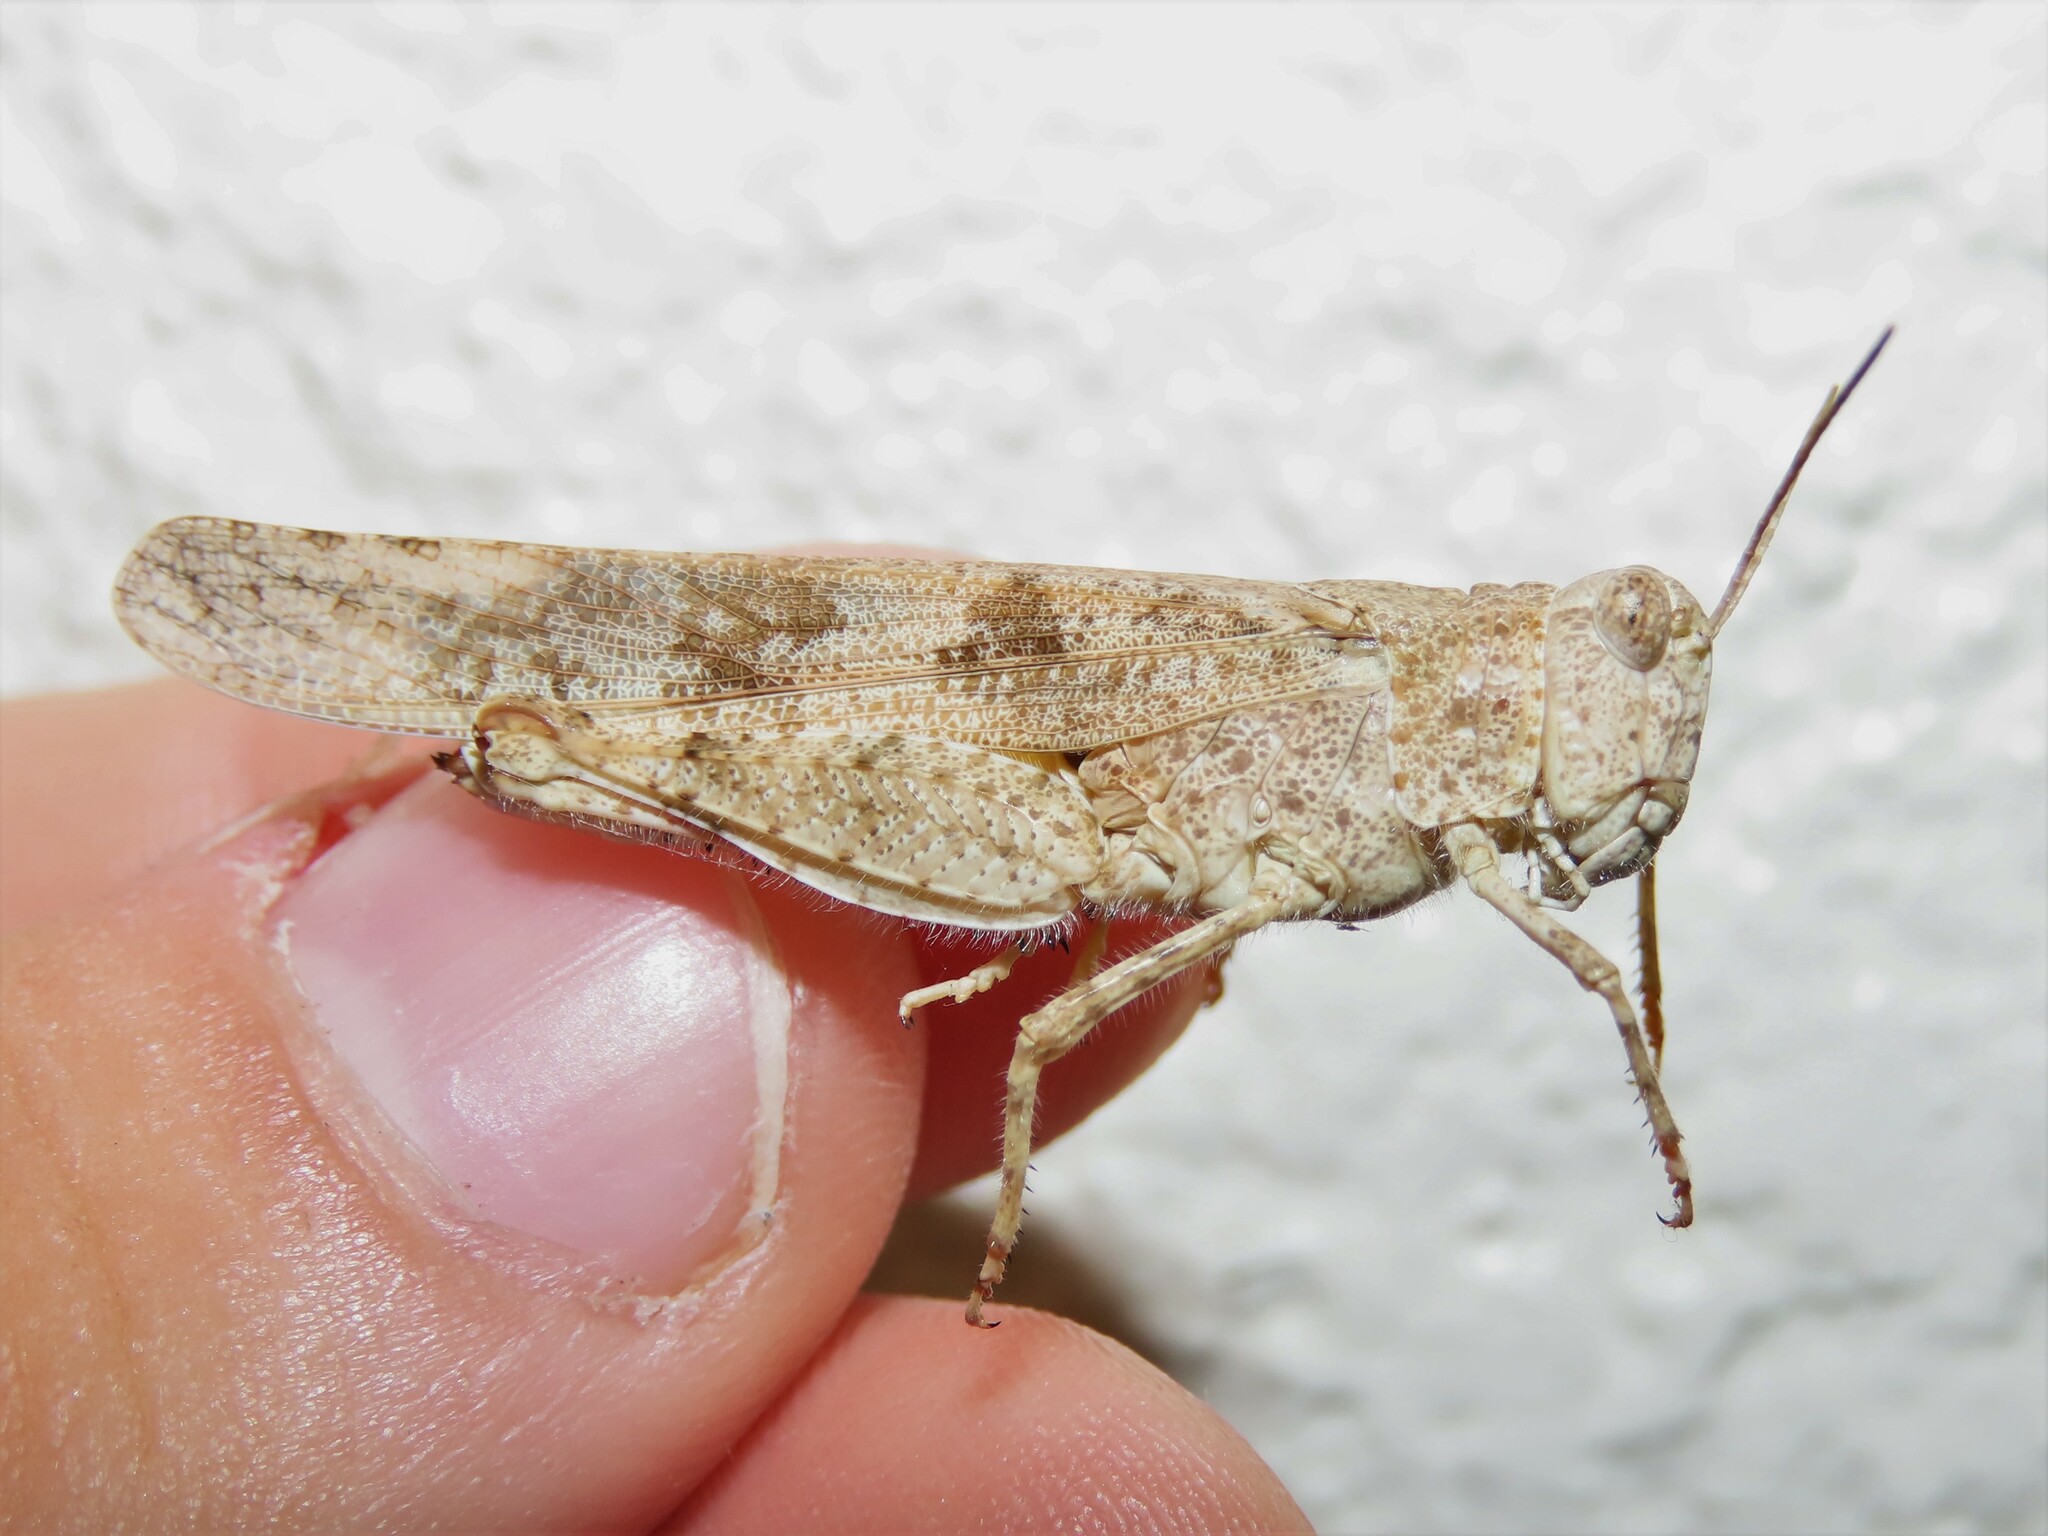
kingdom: Animalia
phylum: Arthropoda
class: Insecta
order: Orthoptera
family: Acrididae
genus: Trimerotropis
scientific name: Trimerotropis maritima
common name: Seaside locust
